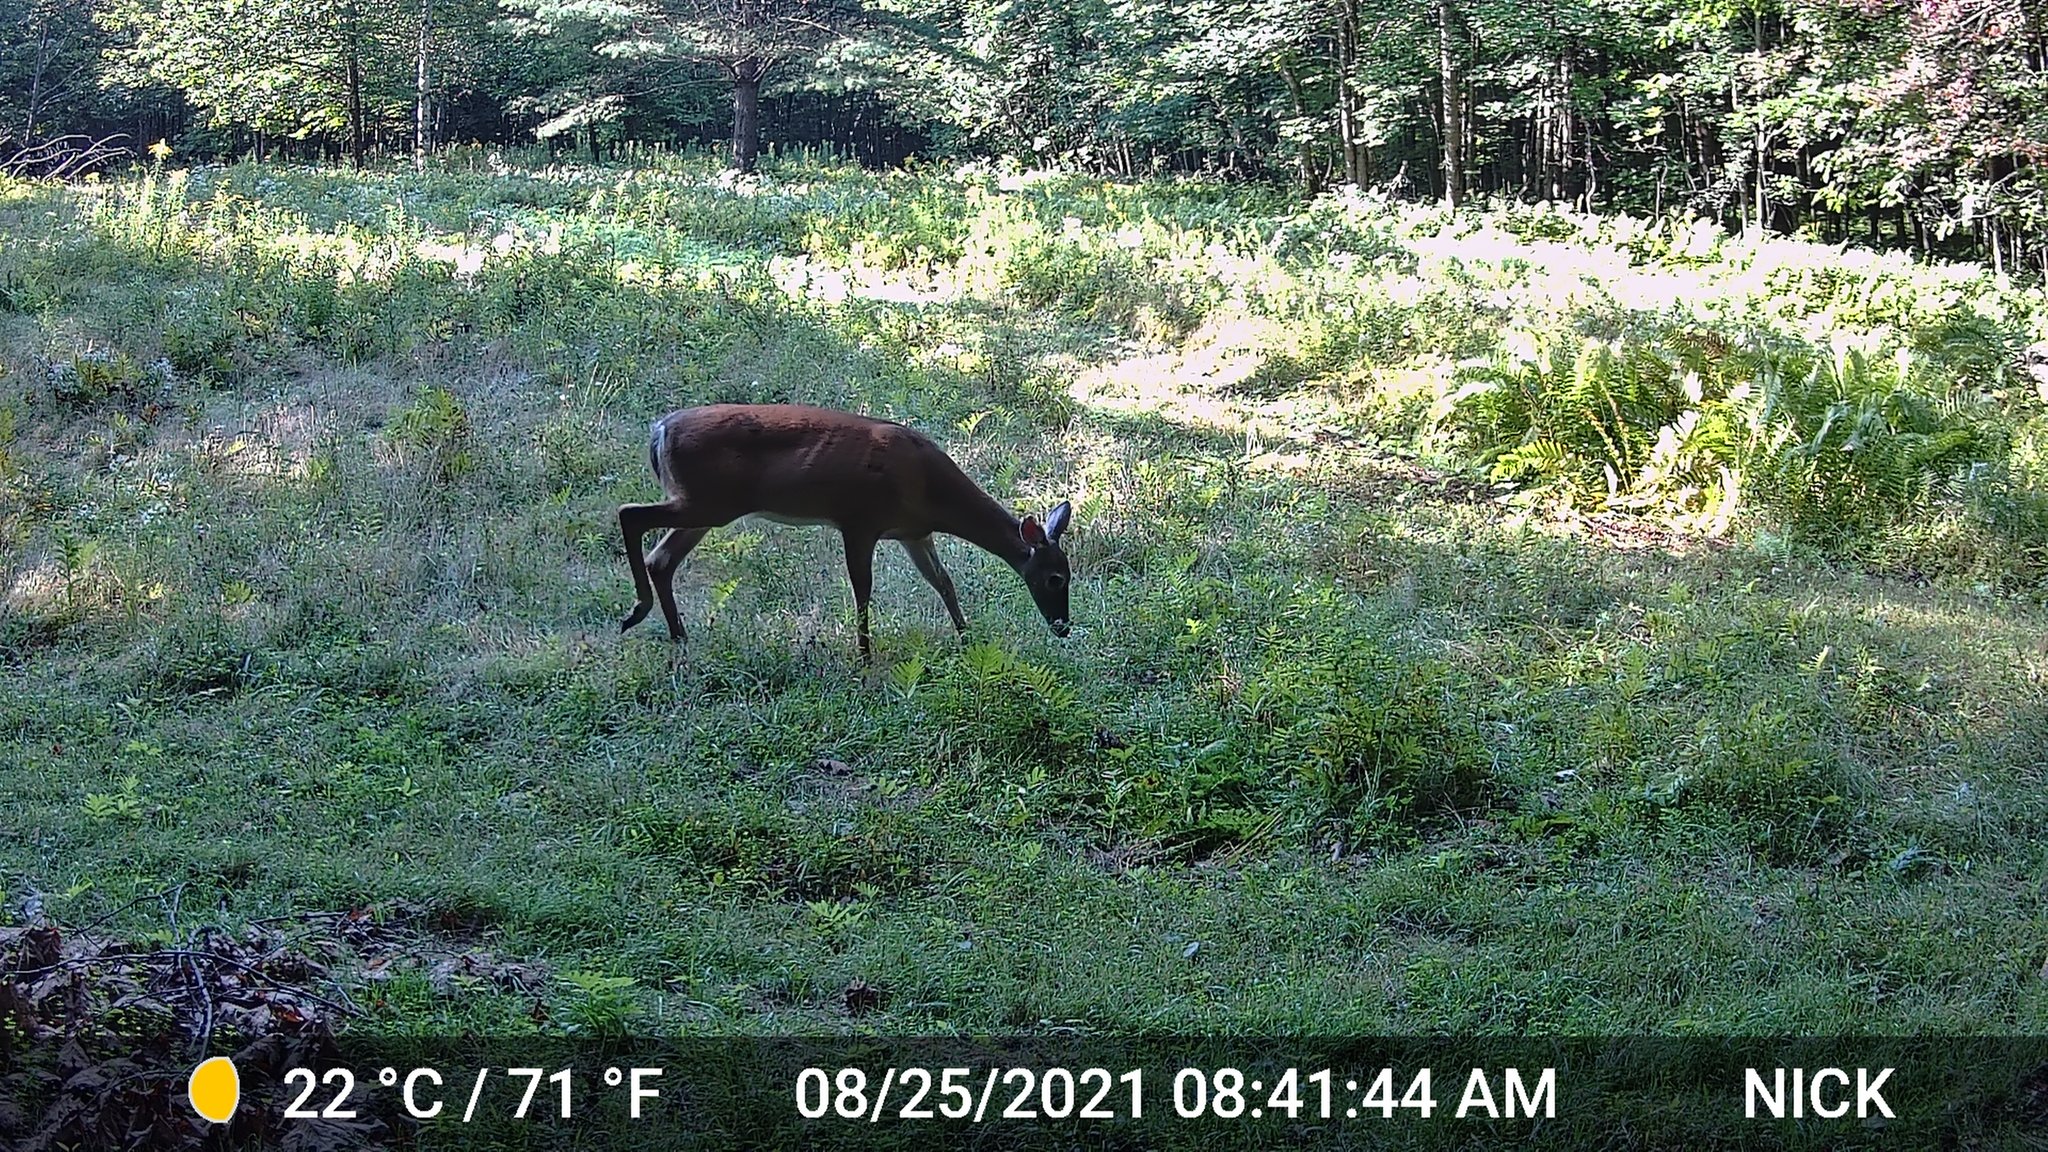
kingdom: Animalia
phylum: Chordata
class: Mammalia
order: Artiodactyla
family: Cervidae
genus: Odocoileus
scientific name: Odocoileus virginianus
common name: White-tailed deer
